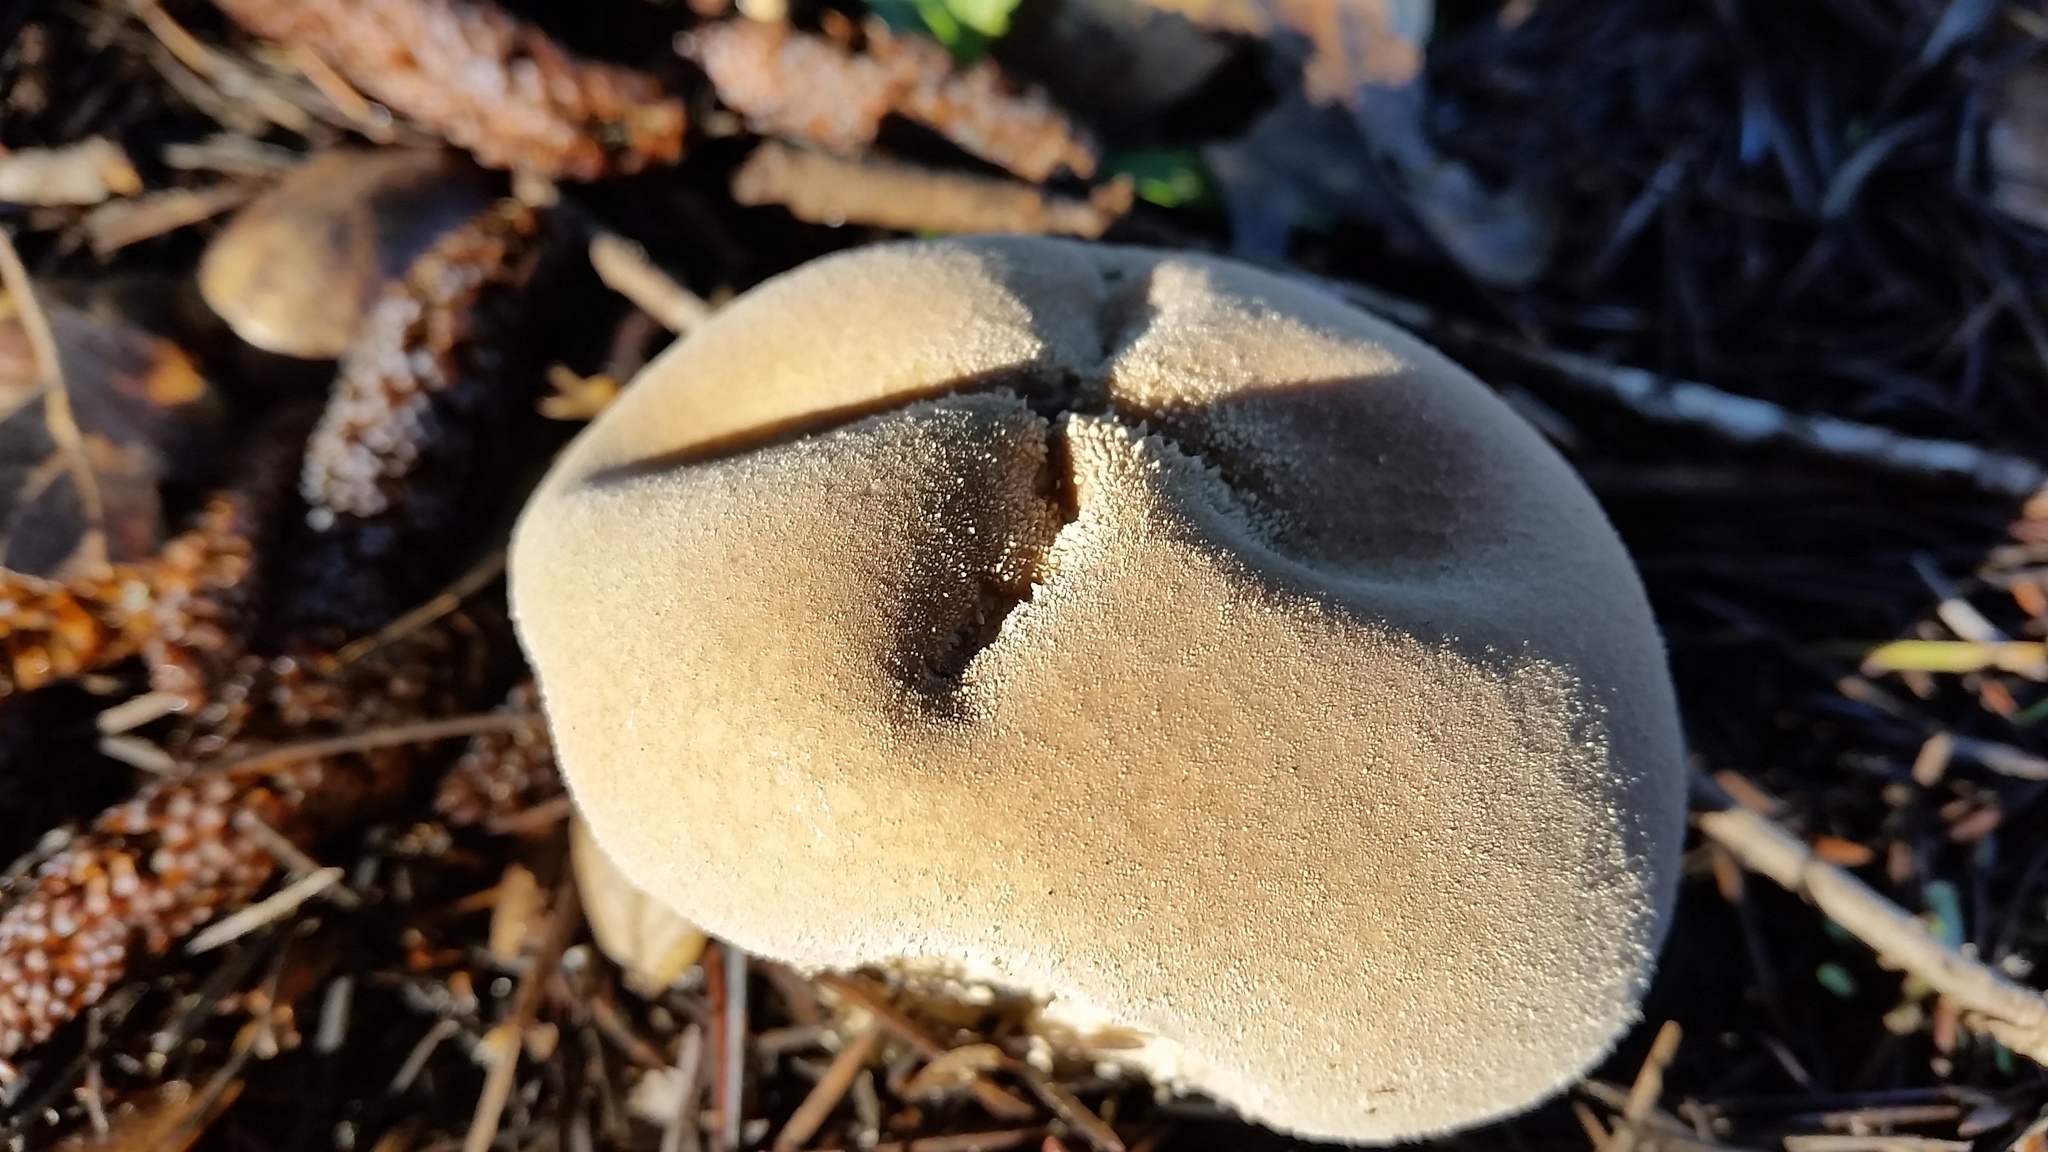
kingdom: Fungi
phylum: Basidiomycota
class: Agaricomycetes
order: Agaricales
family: Lycoperdaceae
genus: Lycoperdon
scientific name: Lycoperdon pratense
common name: Meadow puffball
